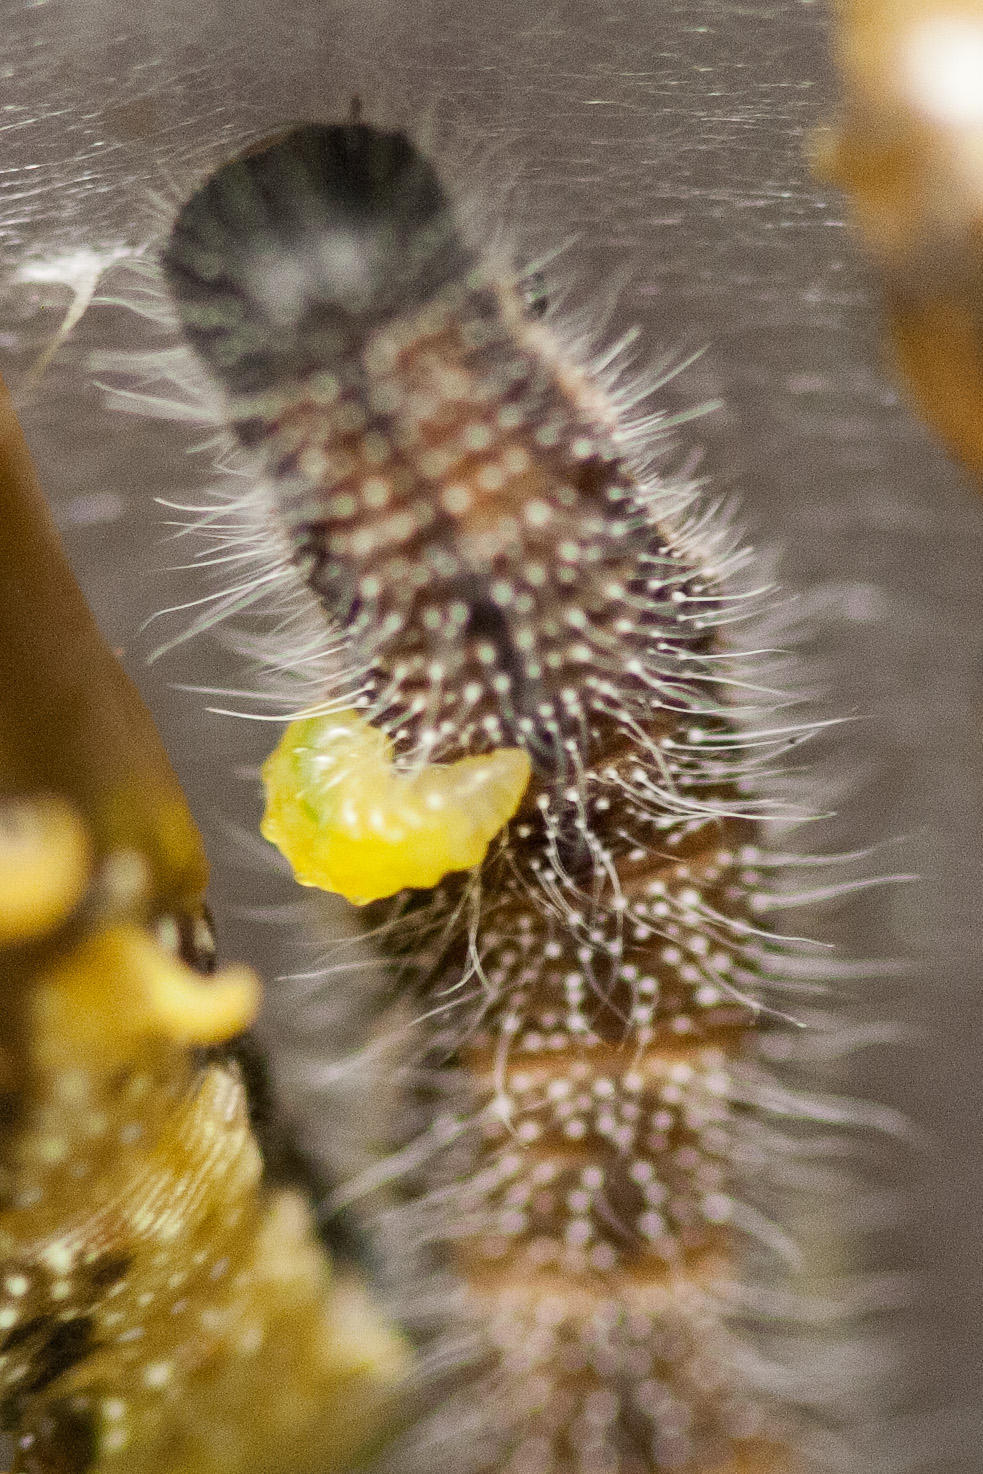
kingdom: Animalia
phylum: Arthropoda
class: Insecta
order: Lepidoptera
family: Pieridae
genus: Mylothris
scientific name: Mylothris agathina
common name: Eastern dotted border
